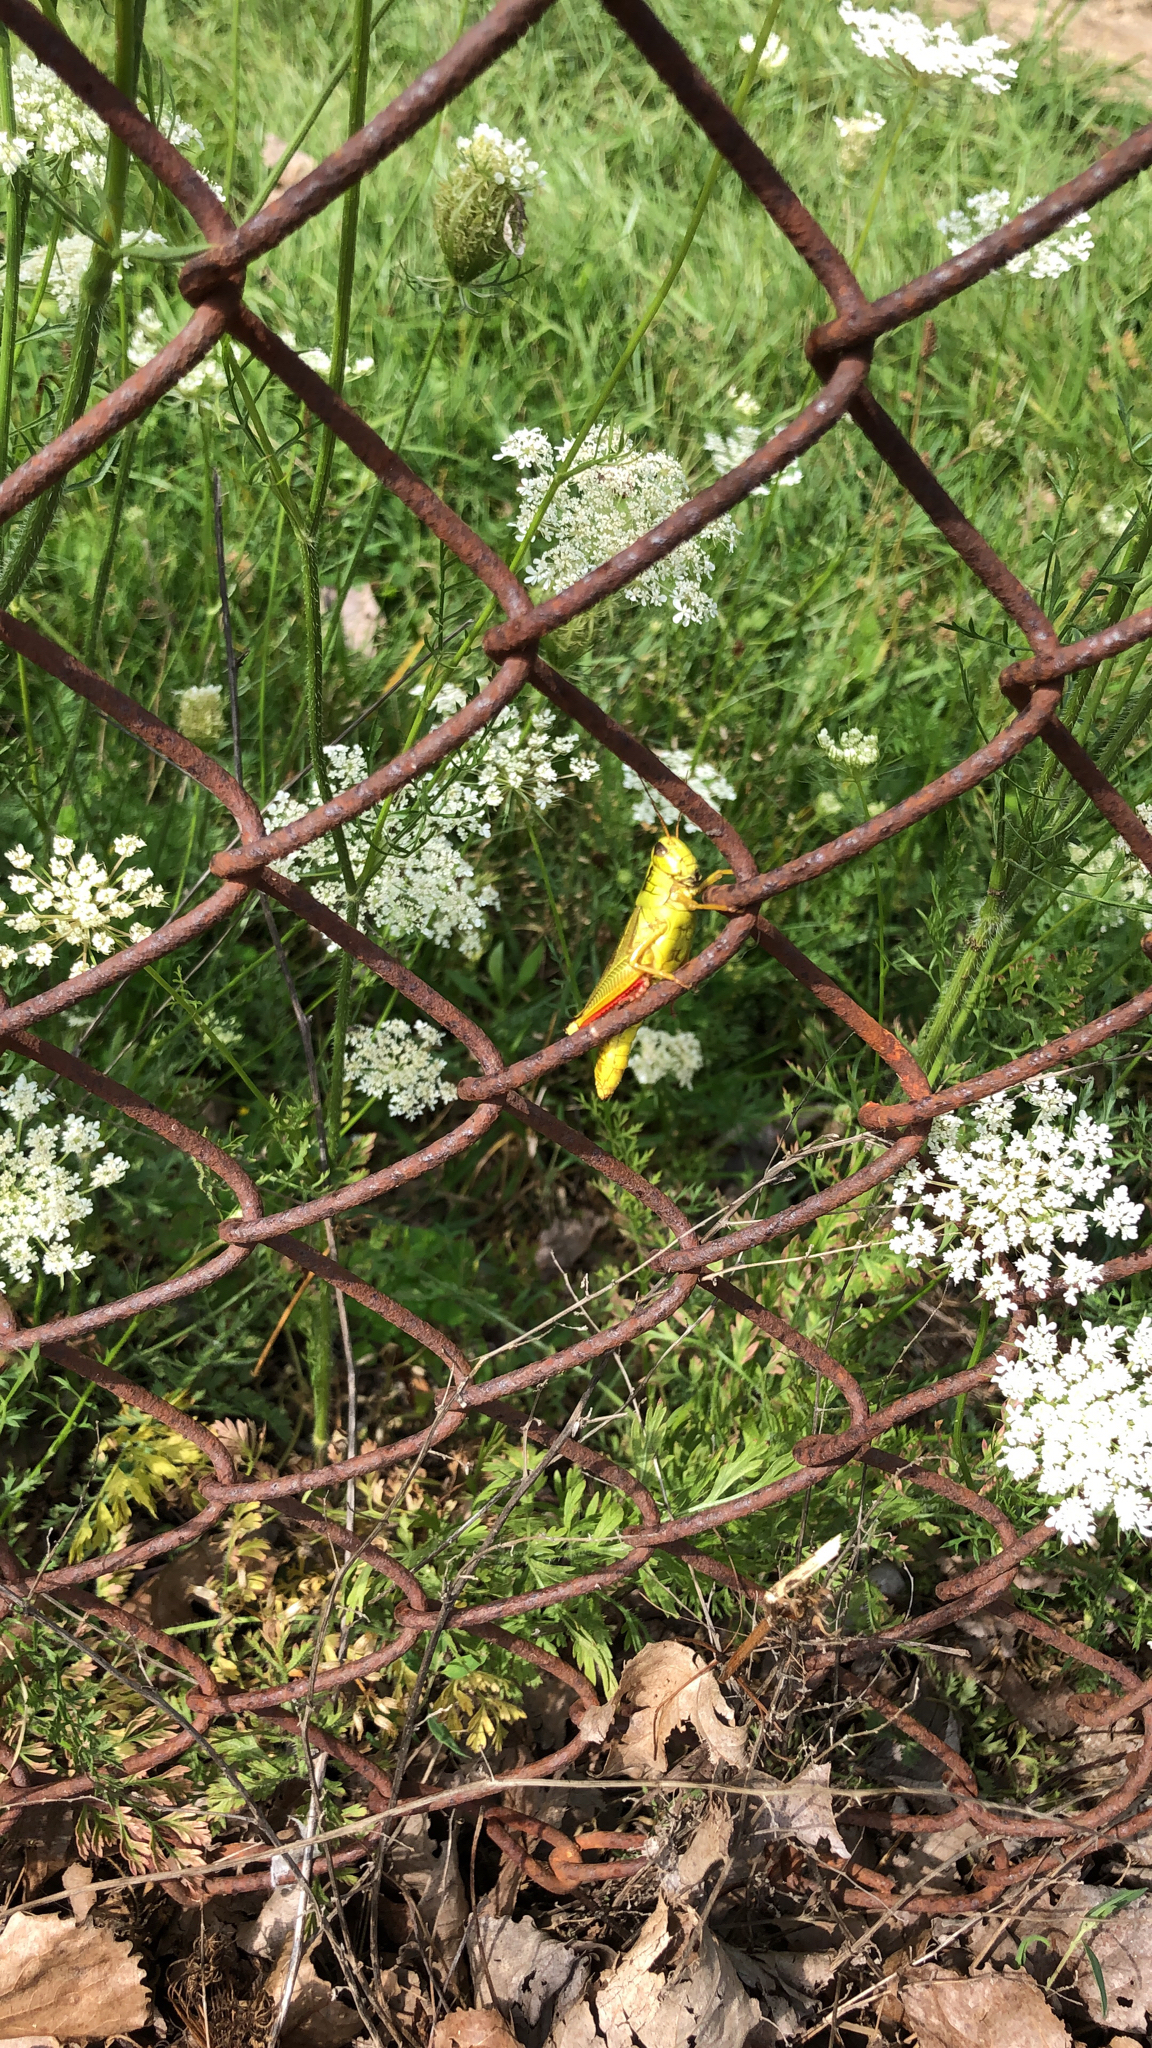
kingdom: Animalia
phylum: Arthropoda
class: Insecta
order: Orthoptera
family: Acrididae
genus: Melanoplus
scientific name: Melanoplus bivittatus
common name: Two-striped grasshopper
